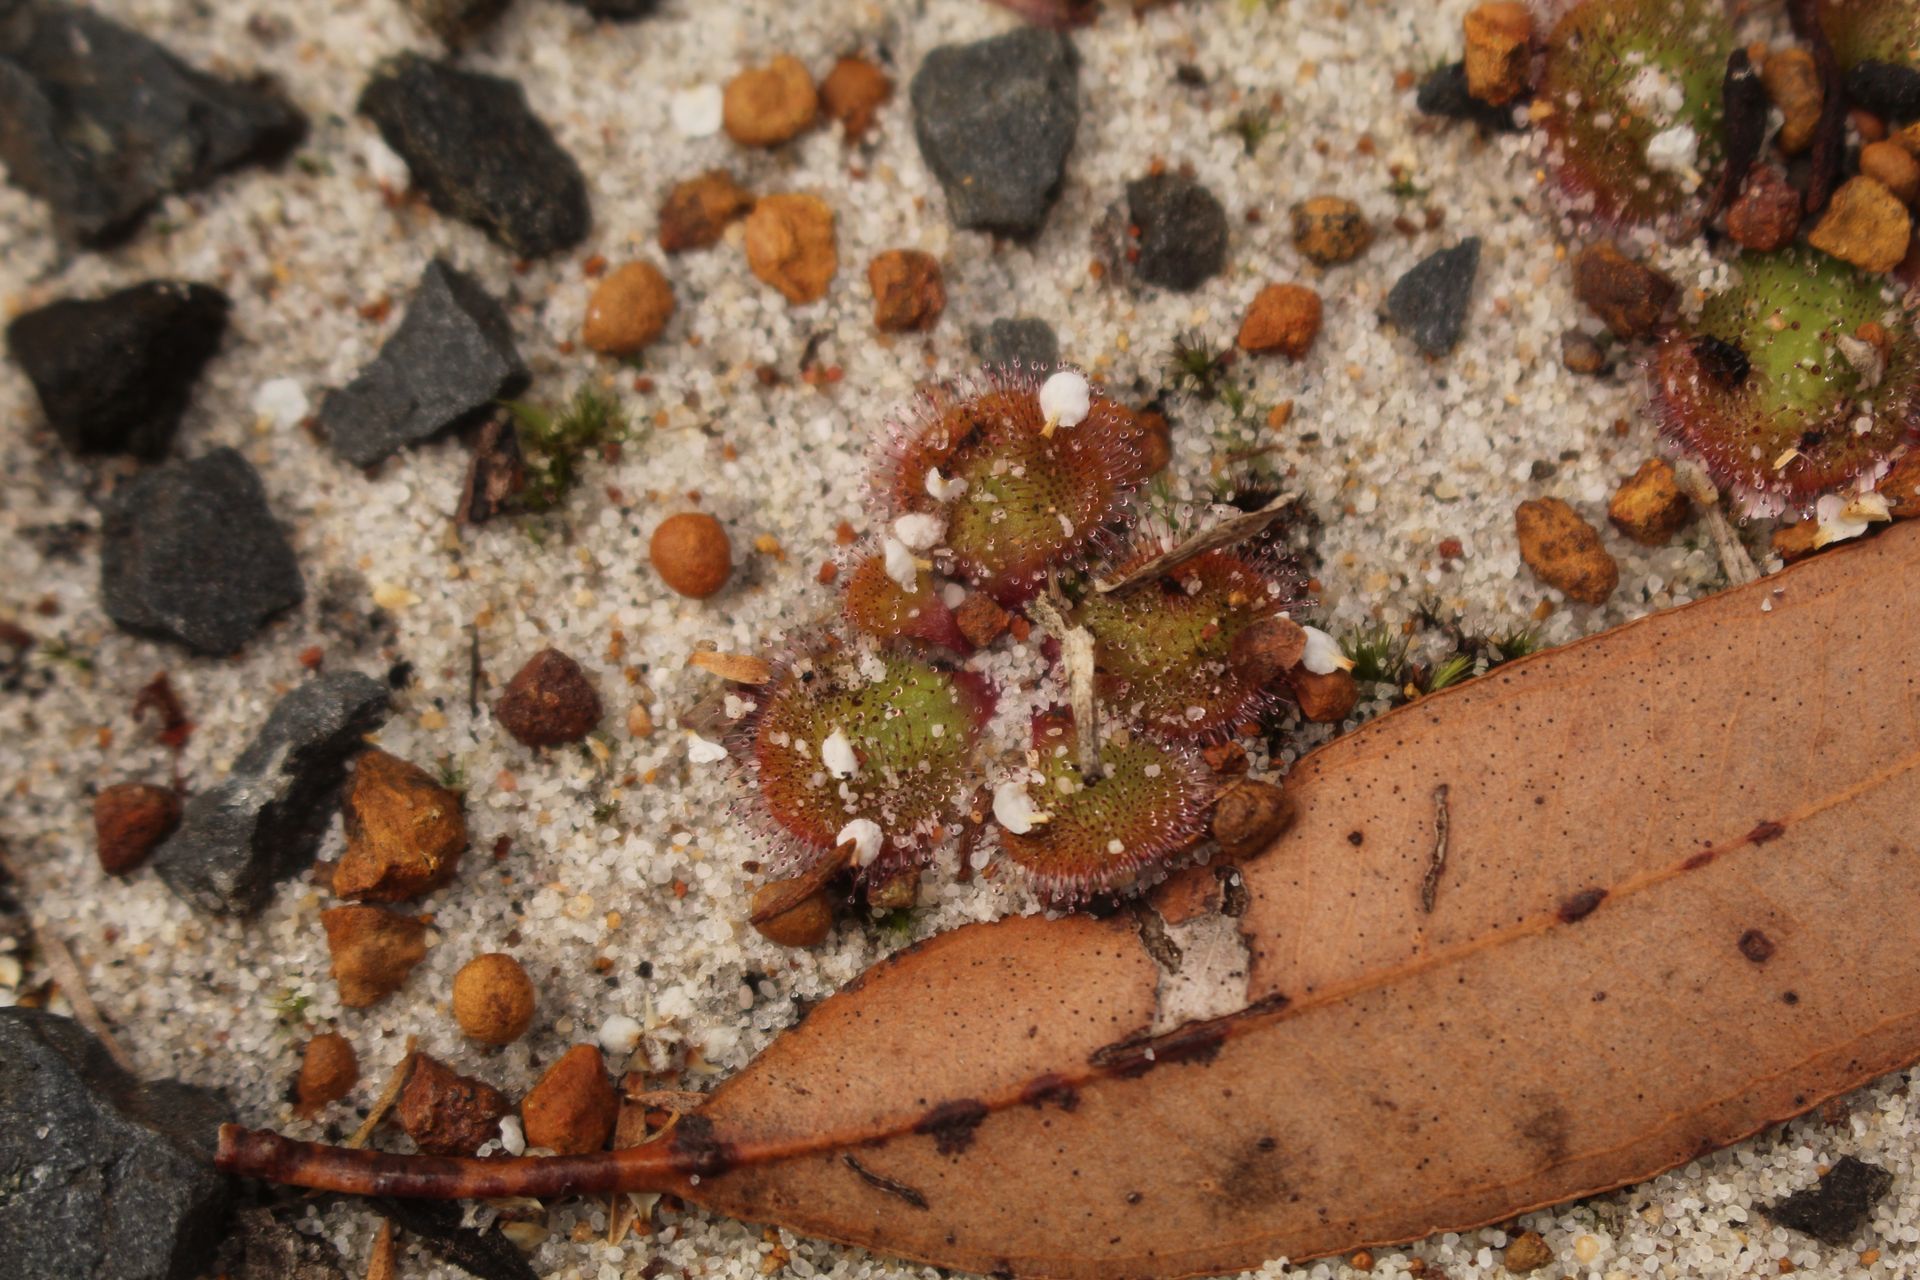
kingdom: Plantae
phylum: Tracheophyta
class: Magnoliopsida
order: Caryophyllales
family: Droseraceae
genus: Drosera
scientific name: Drosera erythrorhiza
